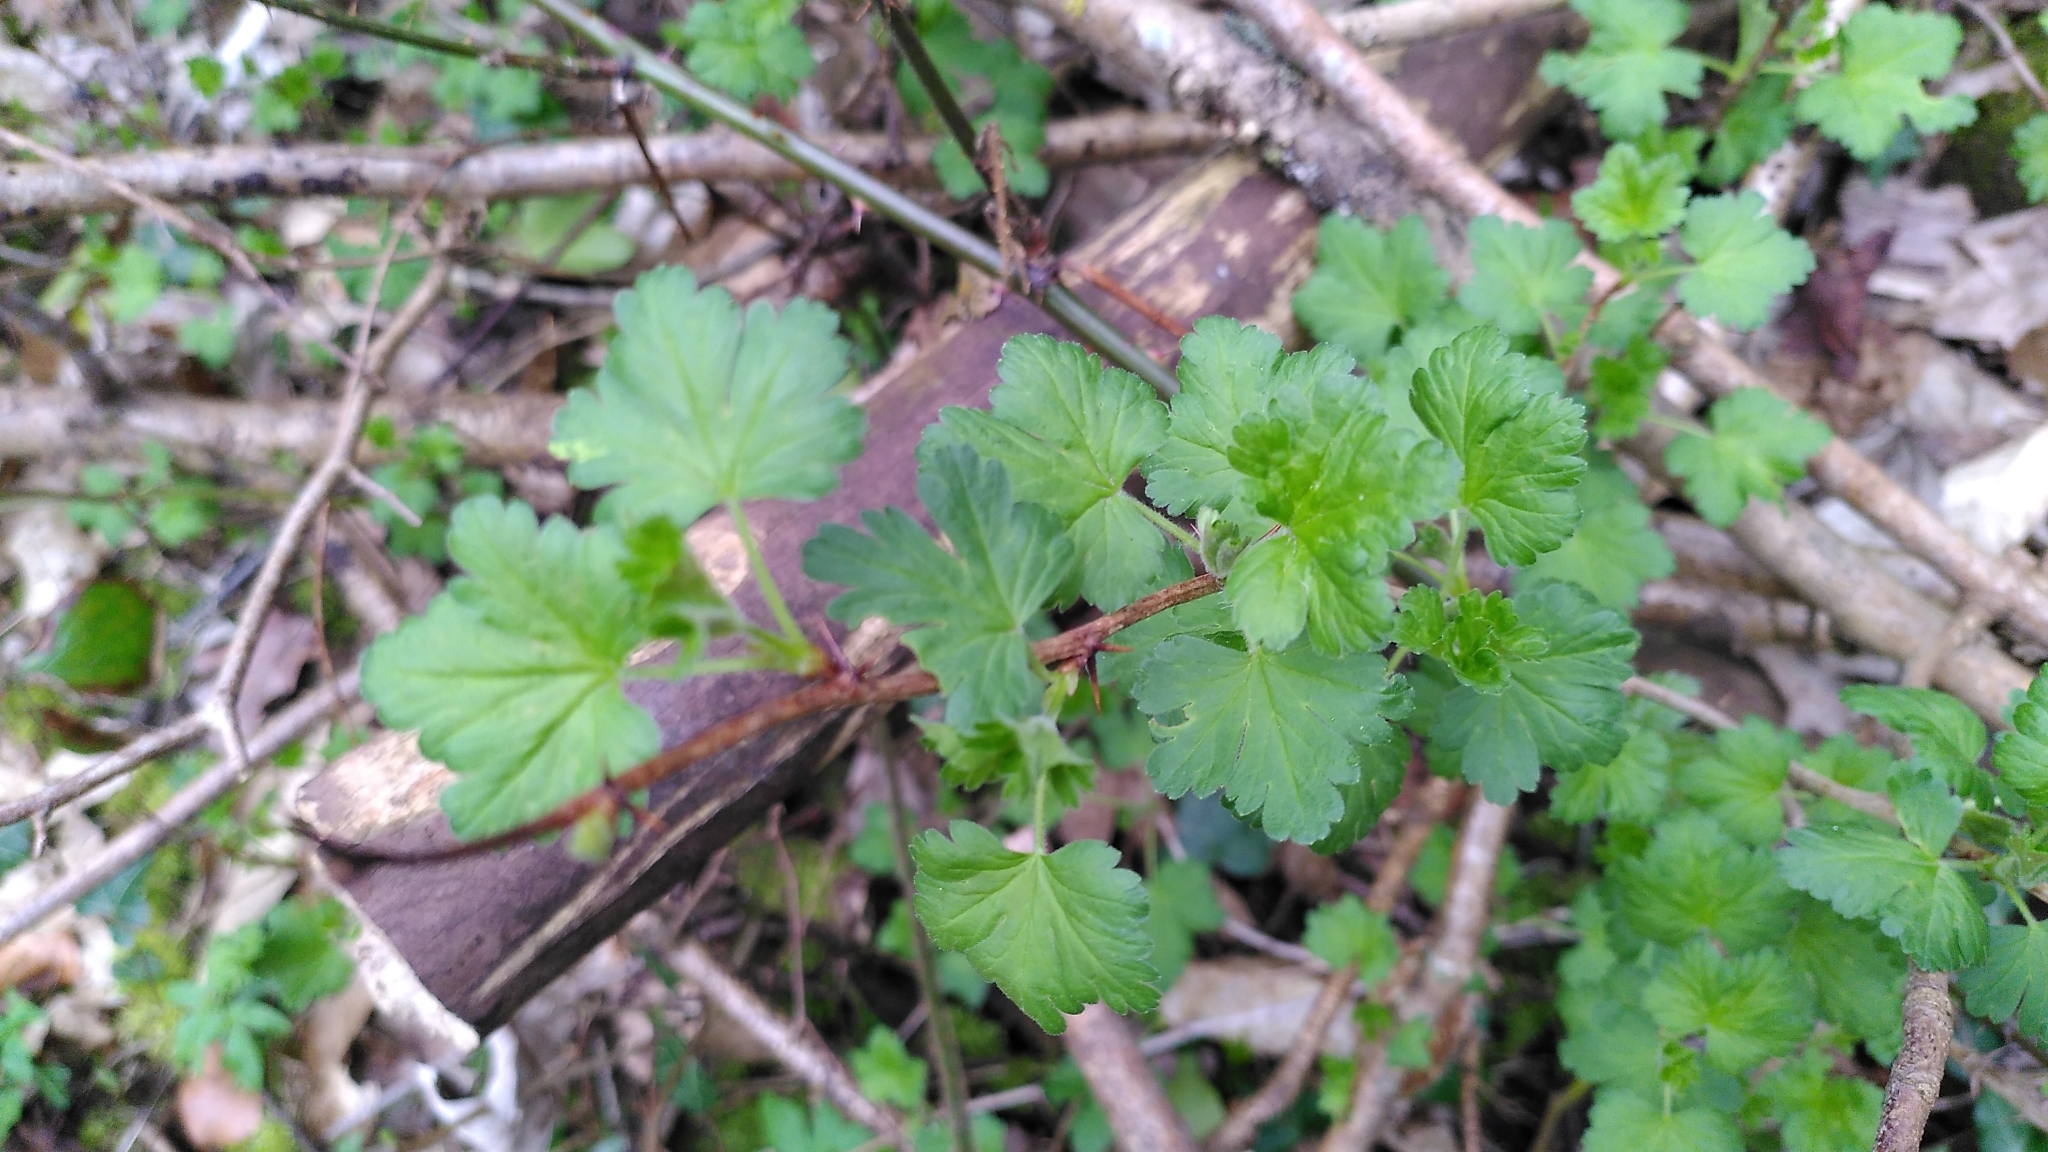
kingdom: Plantae
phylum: Tracheophyta
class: Magnoliopsida
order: Saxifragales
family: Grossulariaceae
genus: Ribes
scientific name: Ribes uva-crispa
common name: Gooseberry
